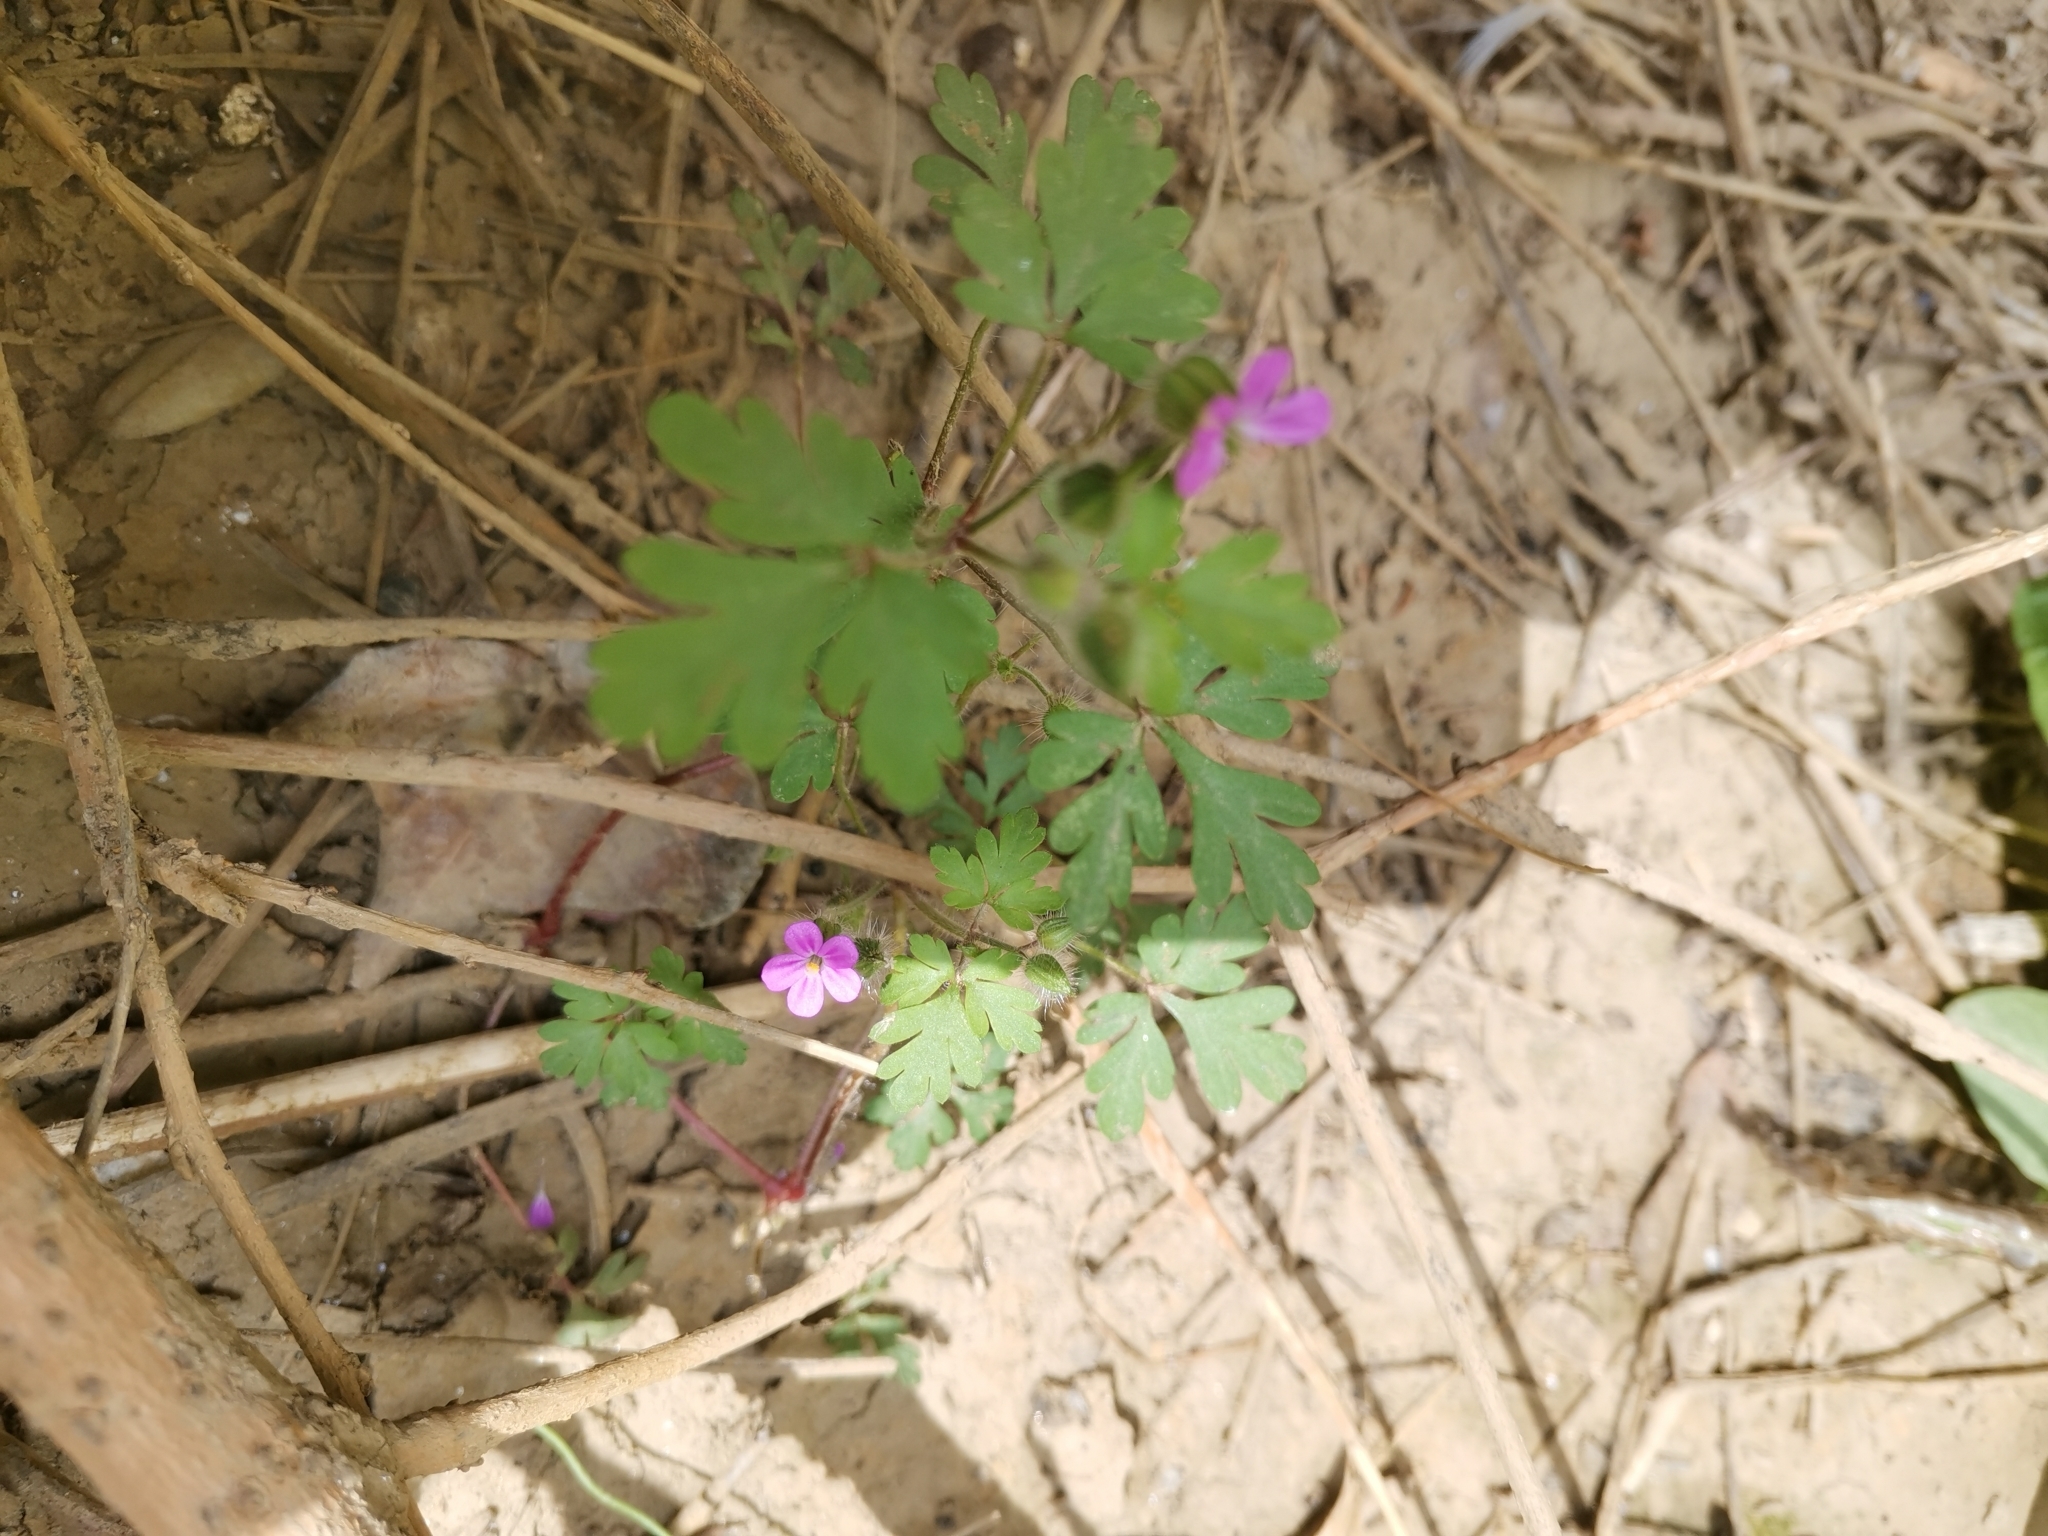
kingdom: Plantae
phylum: Tracheophyta
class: Magnoliopsida
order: Geraniales
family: Geraniaceae
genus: Geranium
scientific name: Geranium purpureum
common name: Little-robin
